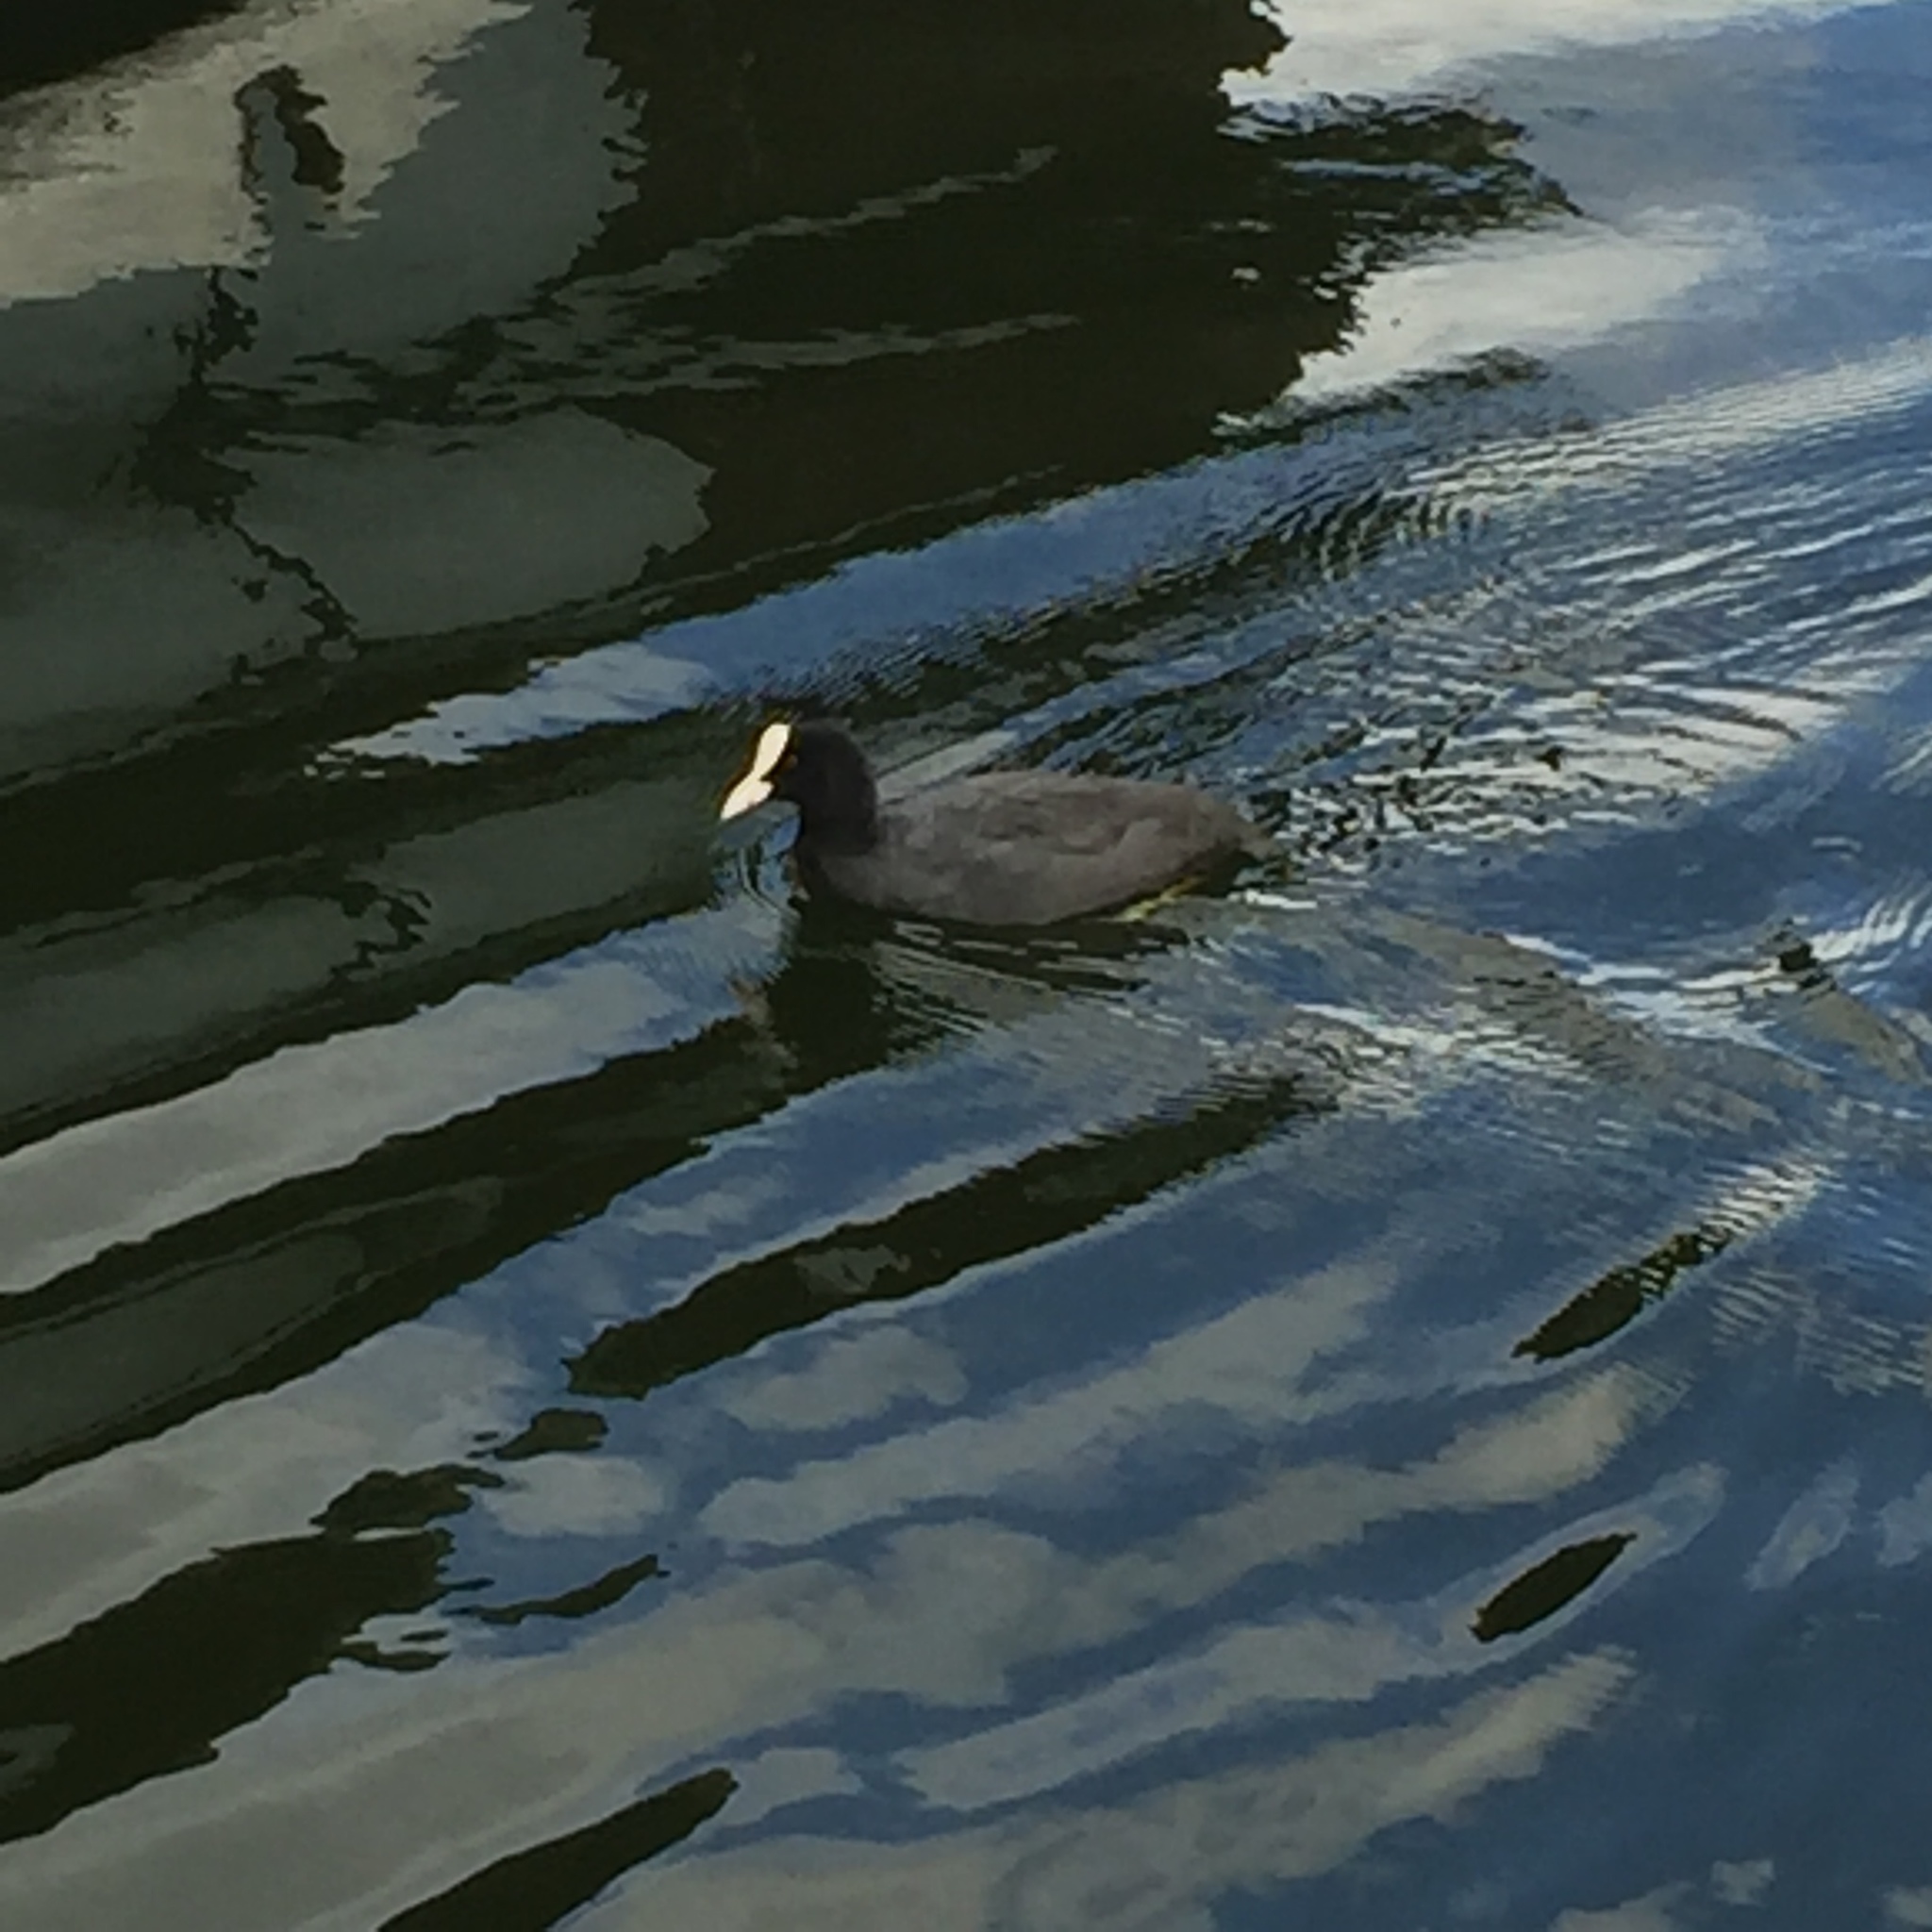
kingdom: Animalia
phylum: Chordata
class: Aves
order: Gruiformes
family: Rallidae
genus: Fulica
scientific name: Fulica atra
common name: Eurasian coot
